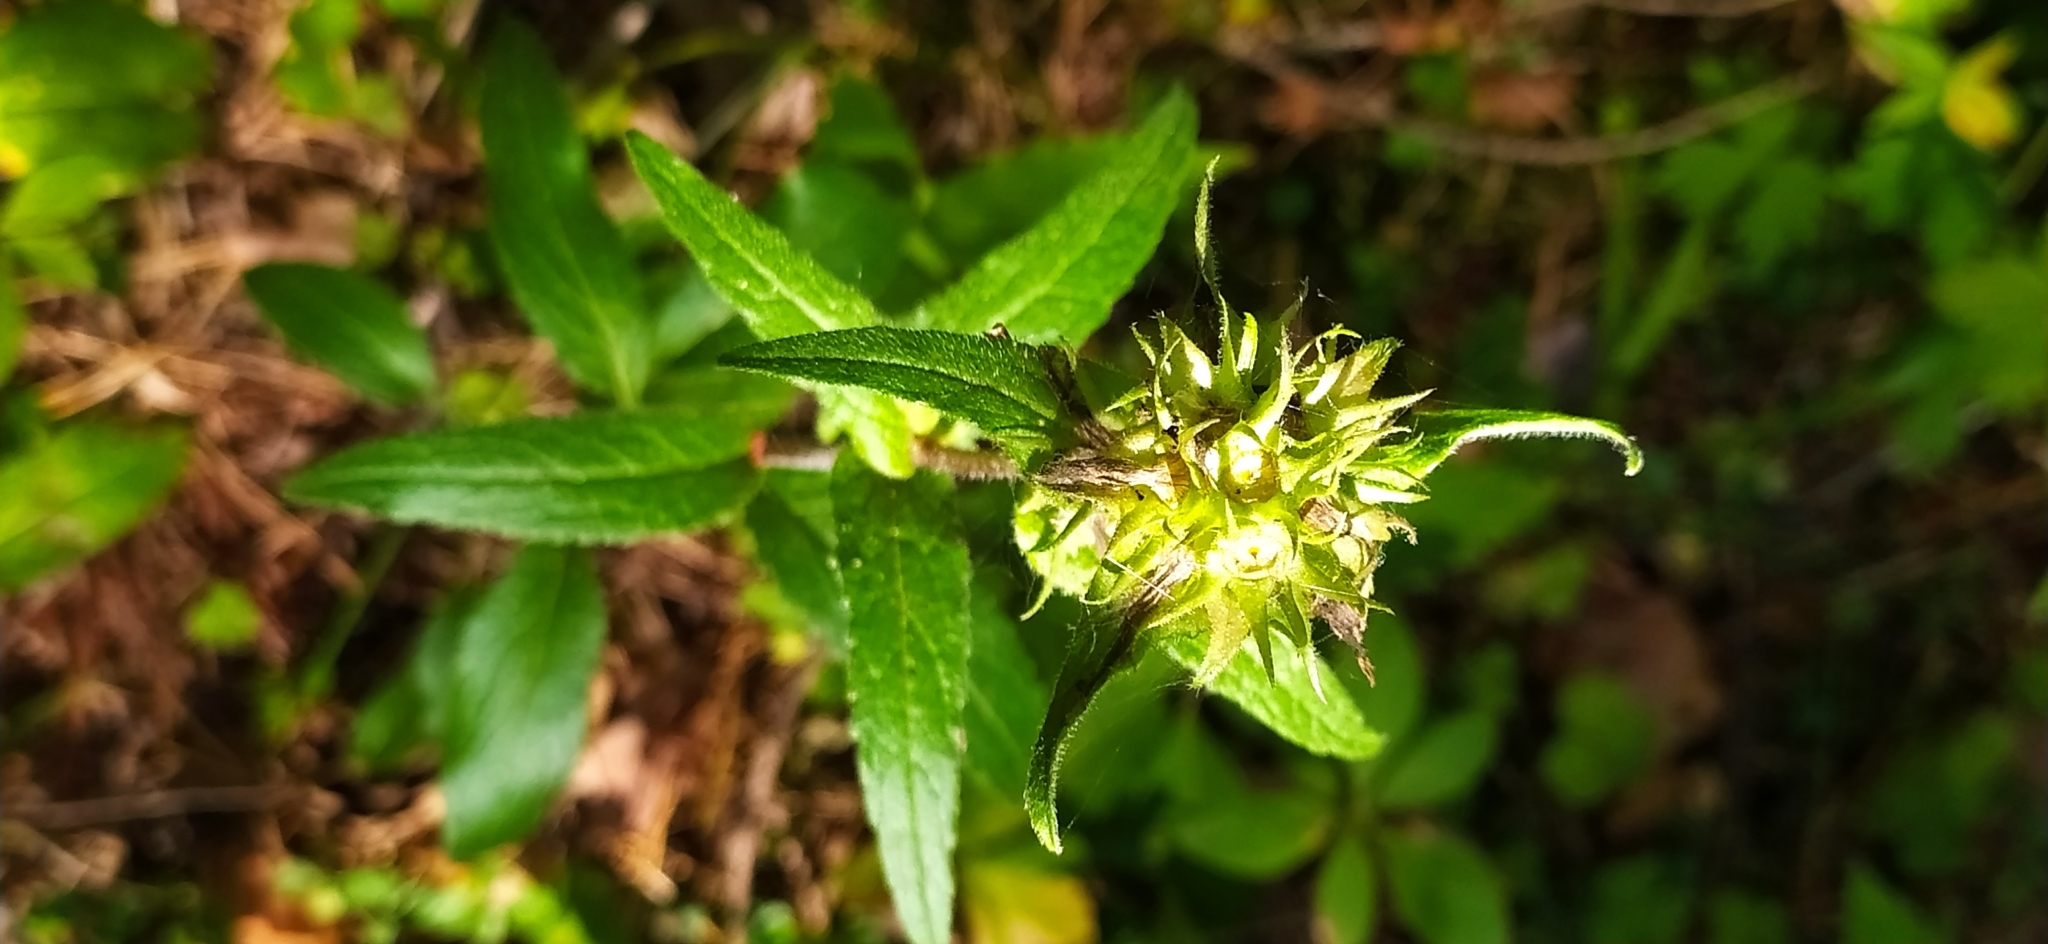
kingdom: Plantae
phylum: Tracheophyta
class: Magnoliopsida
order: Asterales
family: Campanulaceae
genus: Campanula
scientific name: Campanula glomerata
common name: Clustered bellflower
